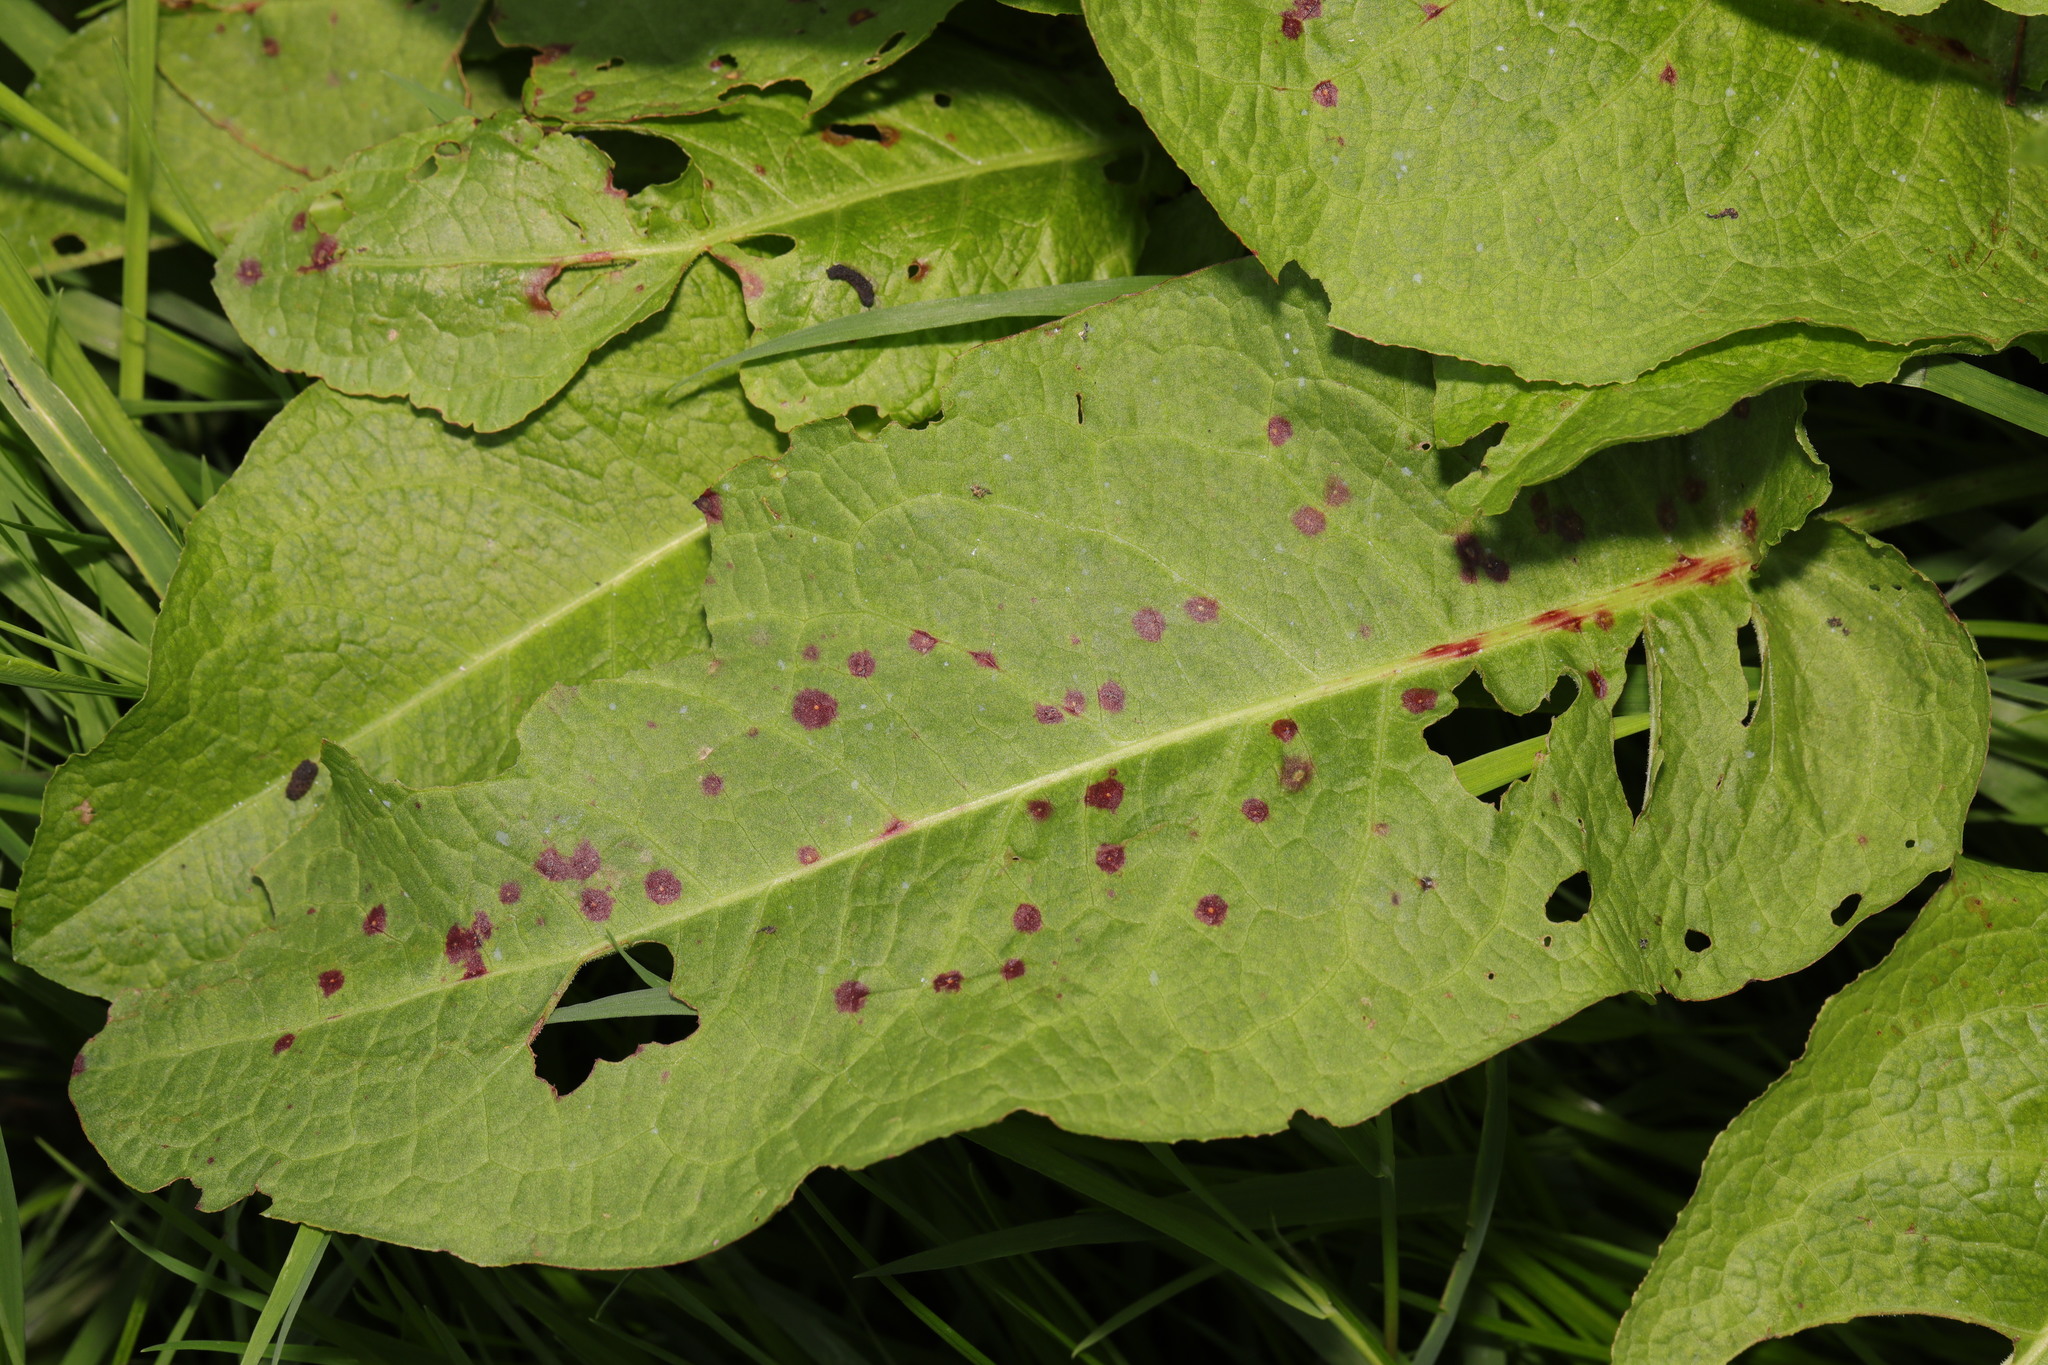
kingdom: Plantae
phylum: Tracheophyta
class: Magnoliopsida
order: Caryophyllales
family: Polygonaceae
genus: Rumex
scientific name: Rumex obtusifolius
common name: Bitter dock
